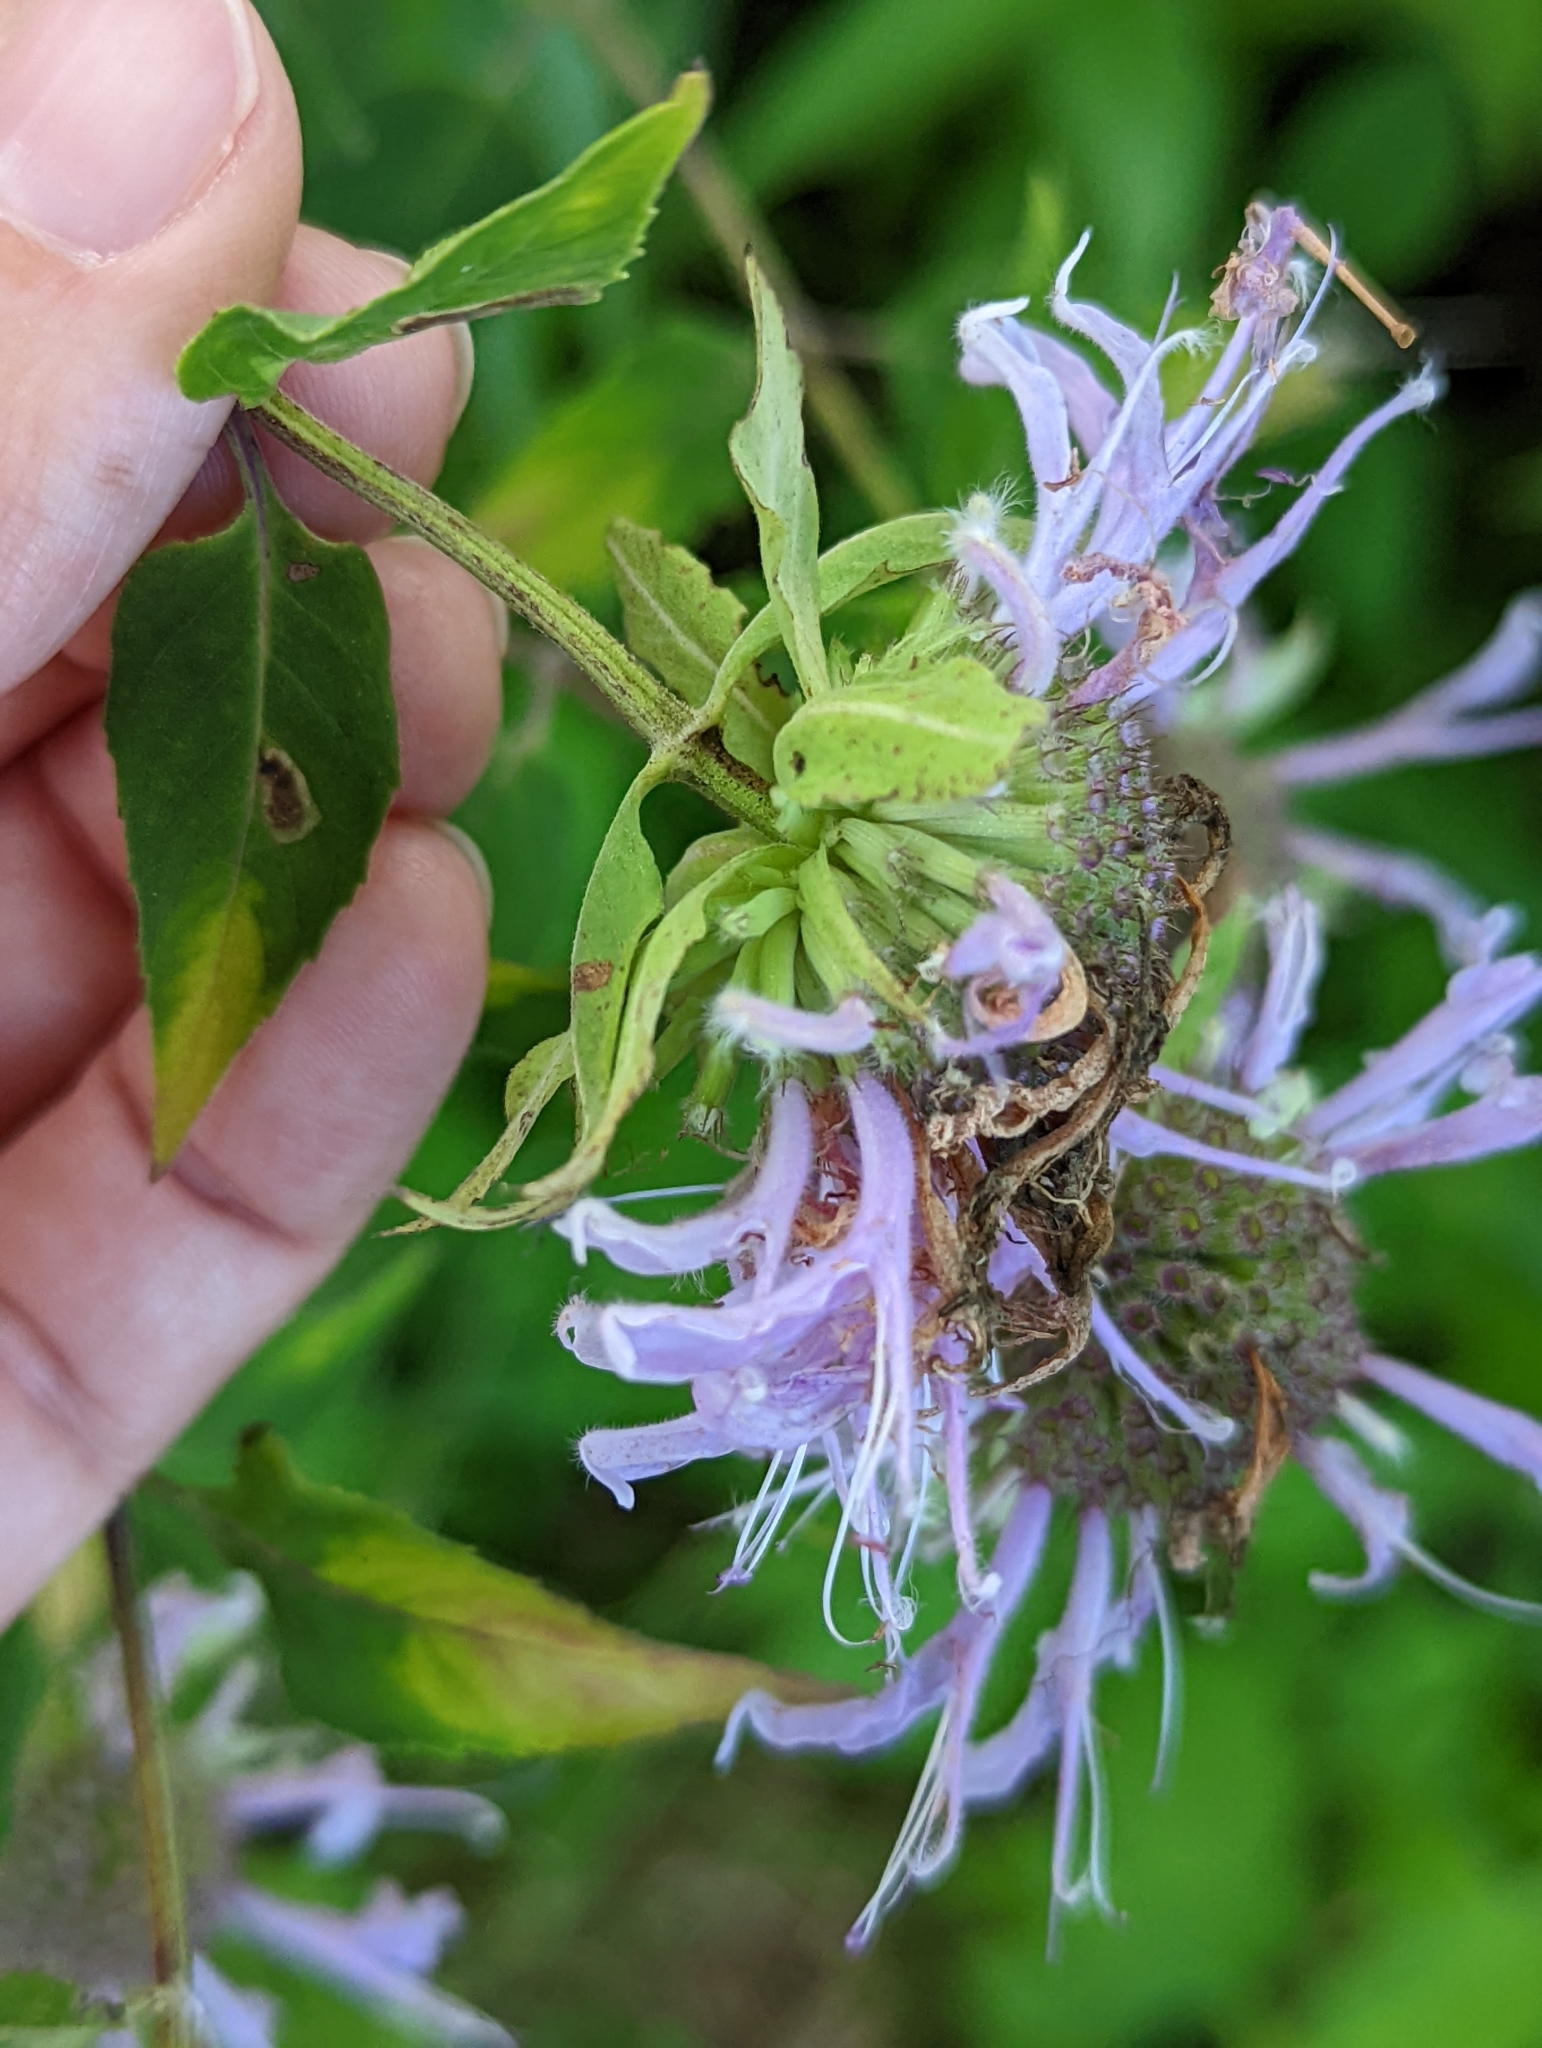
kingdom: Plantae
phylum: Tracheophyta
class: Magnoliopsida
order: Lamiales
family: Lamiaceae
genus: Monarda
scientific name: Monarda fistulosa
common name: Purple beebalm
